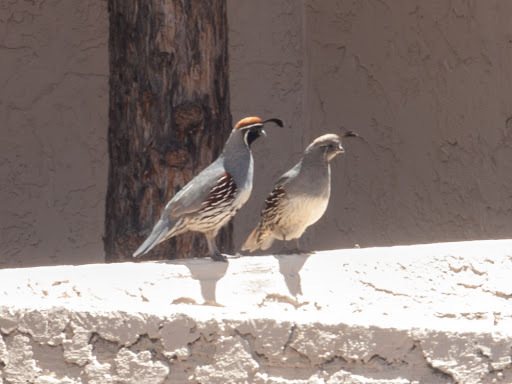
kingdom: Animalia
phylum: Chordata
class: Aves
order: Galliformes
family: Odontophoridae
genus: Callipepla
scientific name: Callipepla gambelii
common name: Gambel's quail
